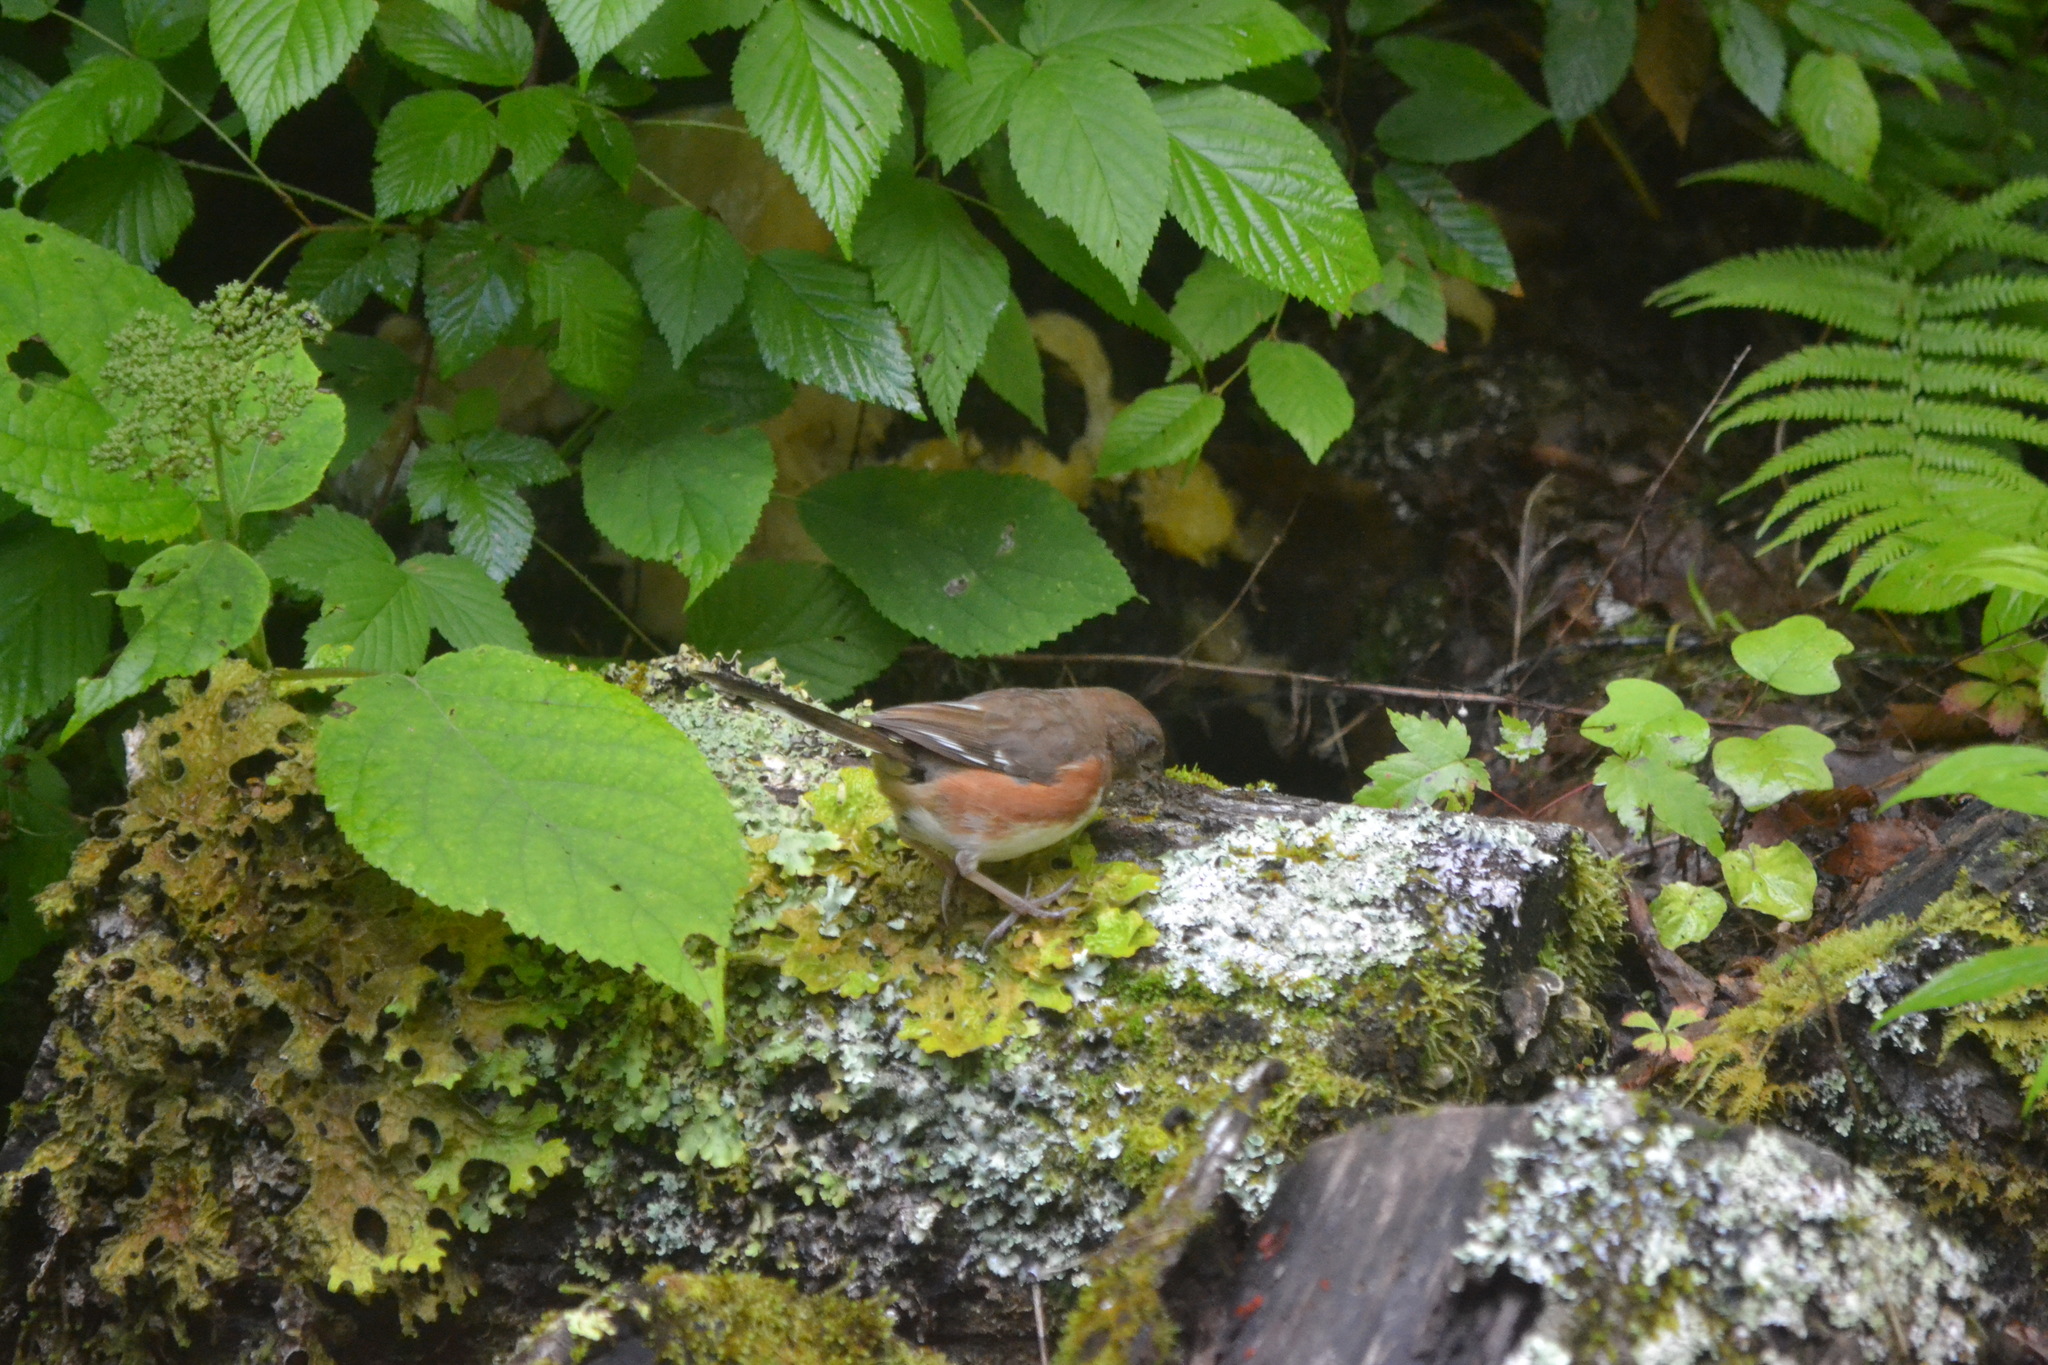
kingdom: Animalia
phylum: Chordata
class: Aves
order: Passeriformes
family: Passerellidae
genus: Pipilo
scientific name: Pipilo erythrophthalmus
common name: Eastern towhee
